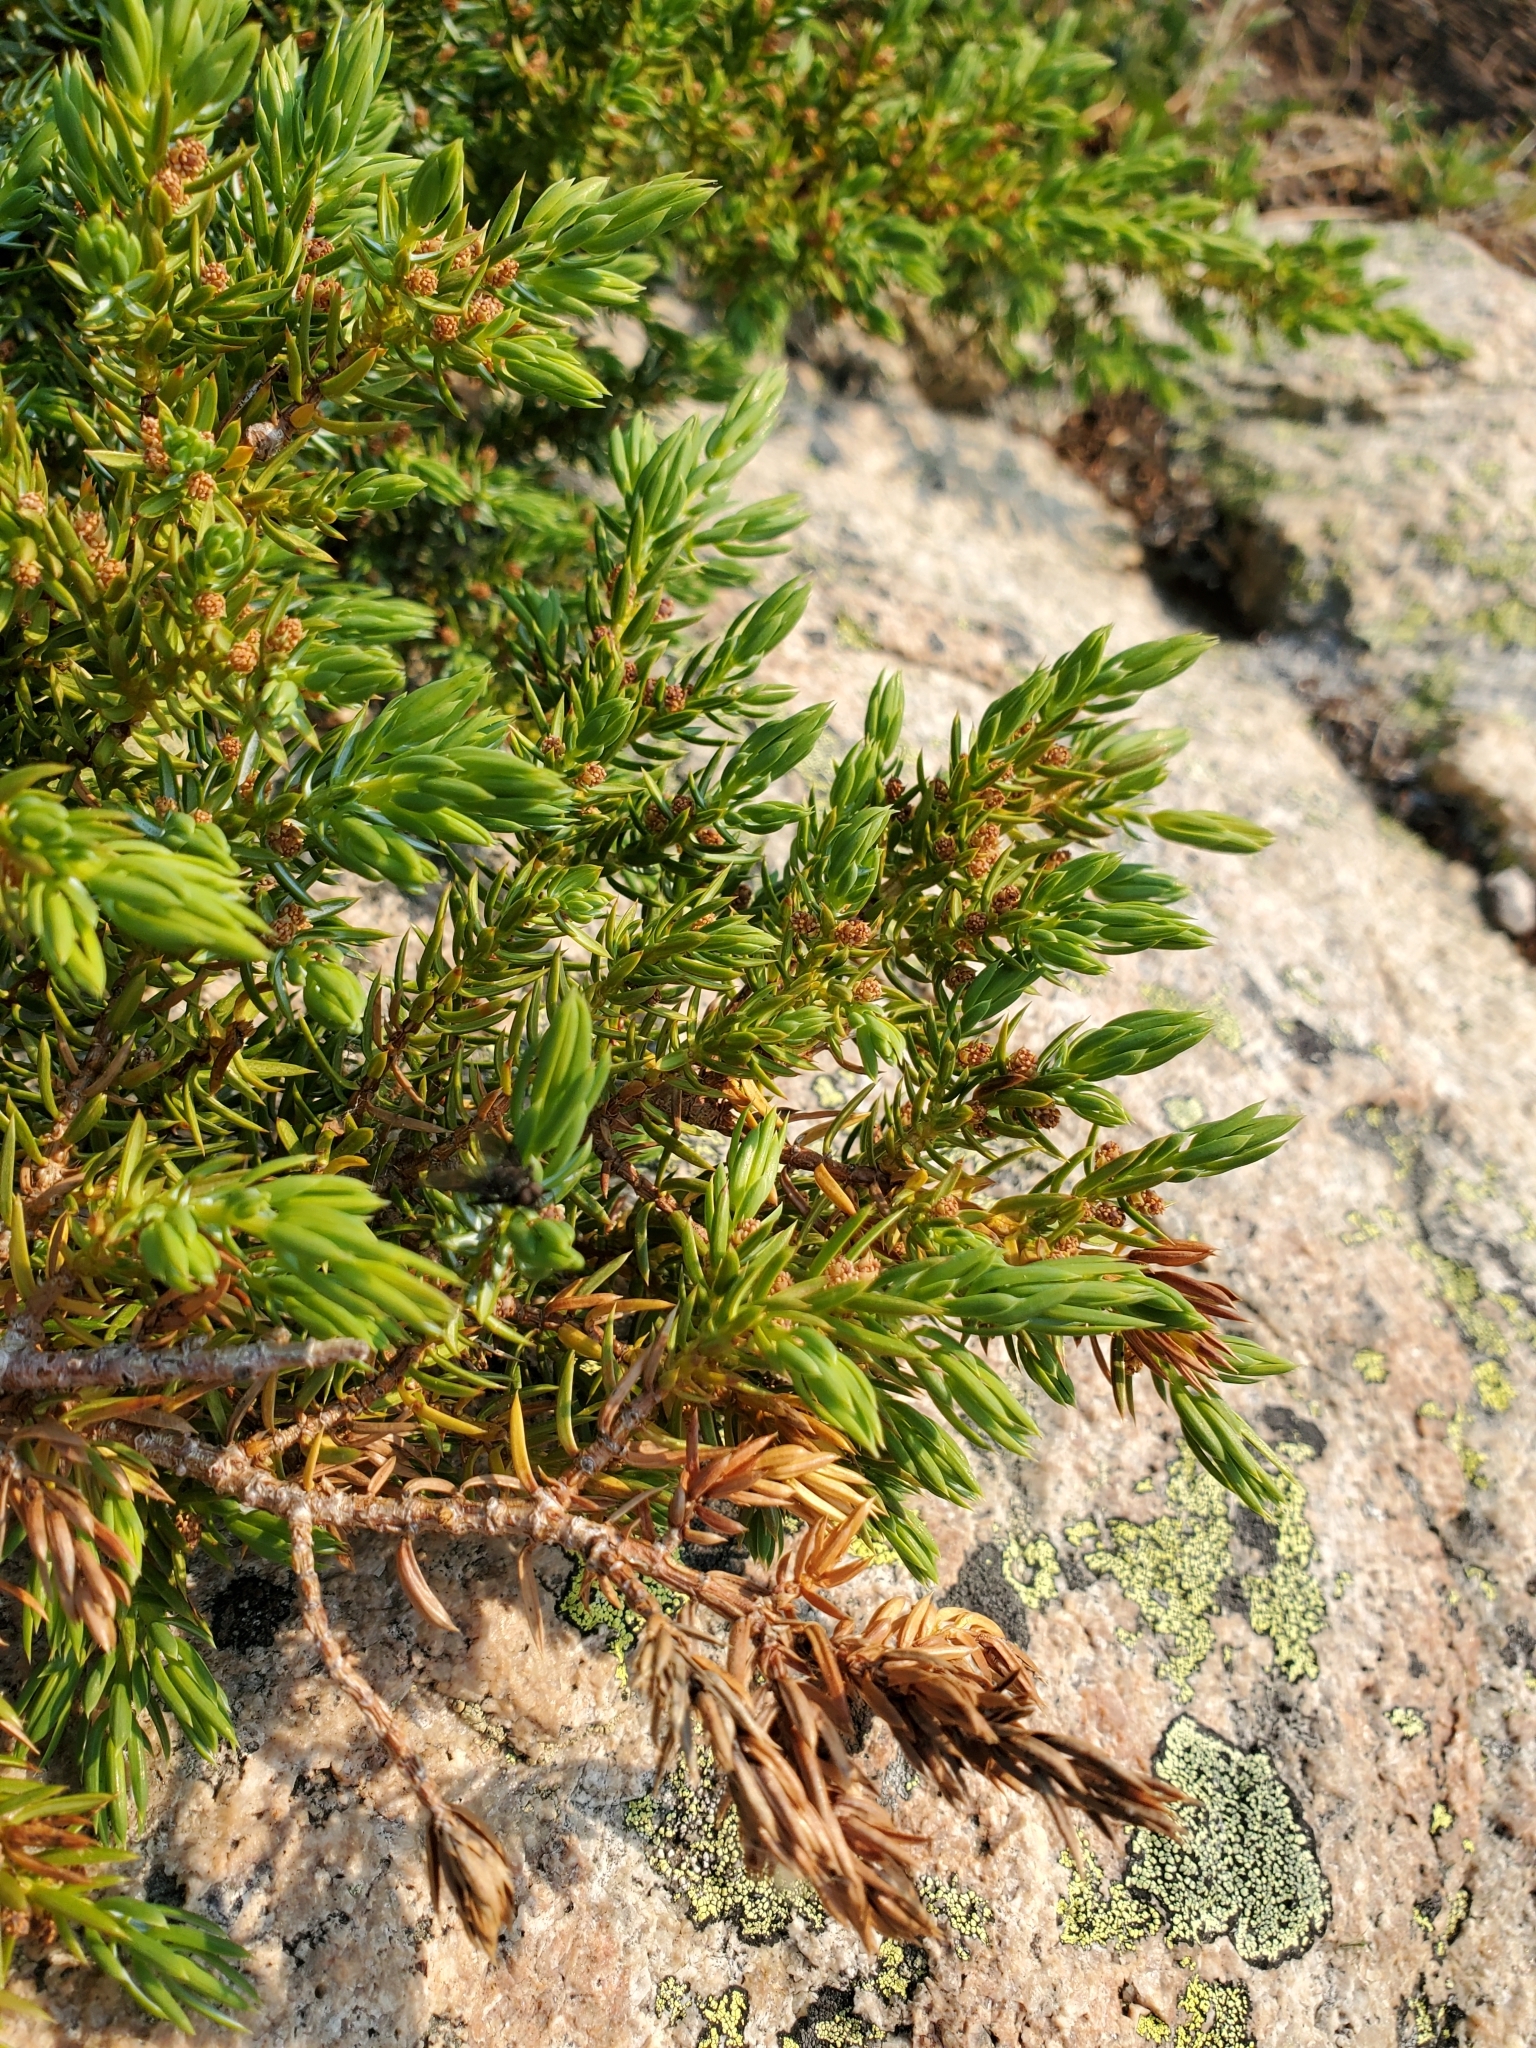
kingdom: Plantae
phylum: Tracheophyta
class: Pinopsida
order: Pinales
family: Cupressaceae
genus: Juniperus
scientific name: Juniperus communis
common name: Common juniper
